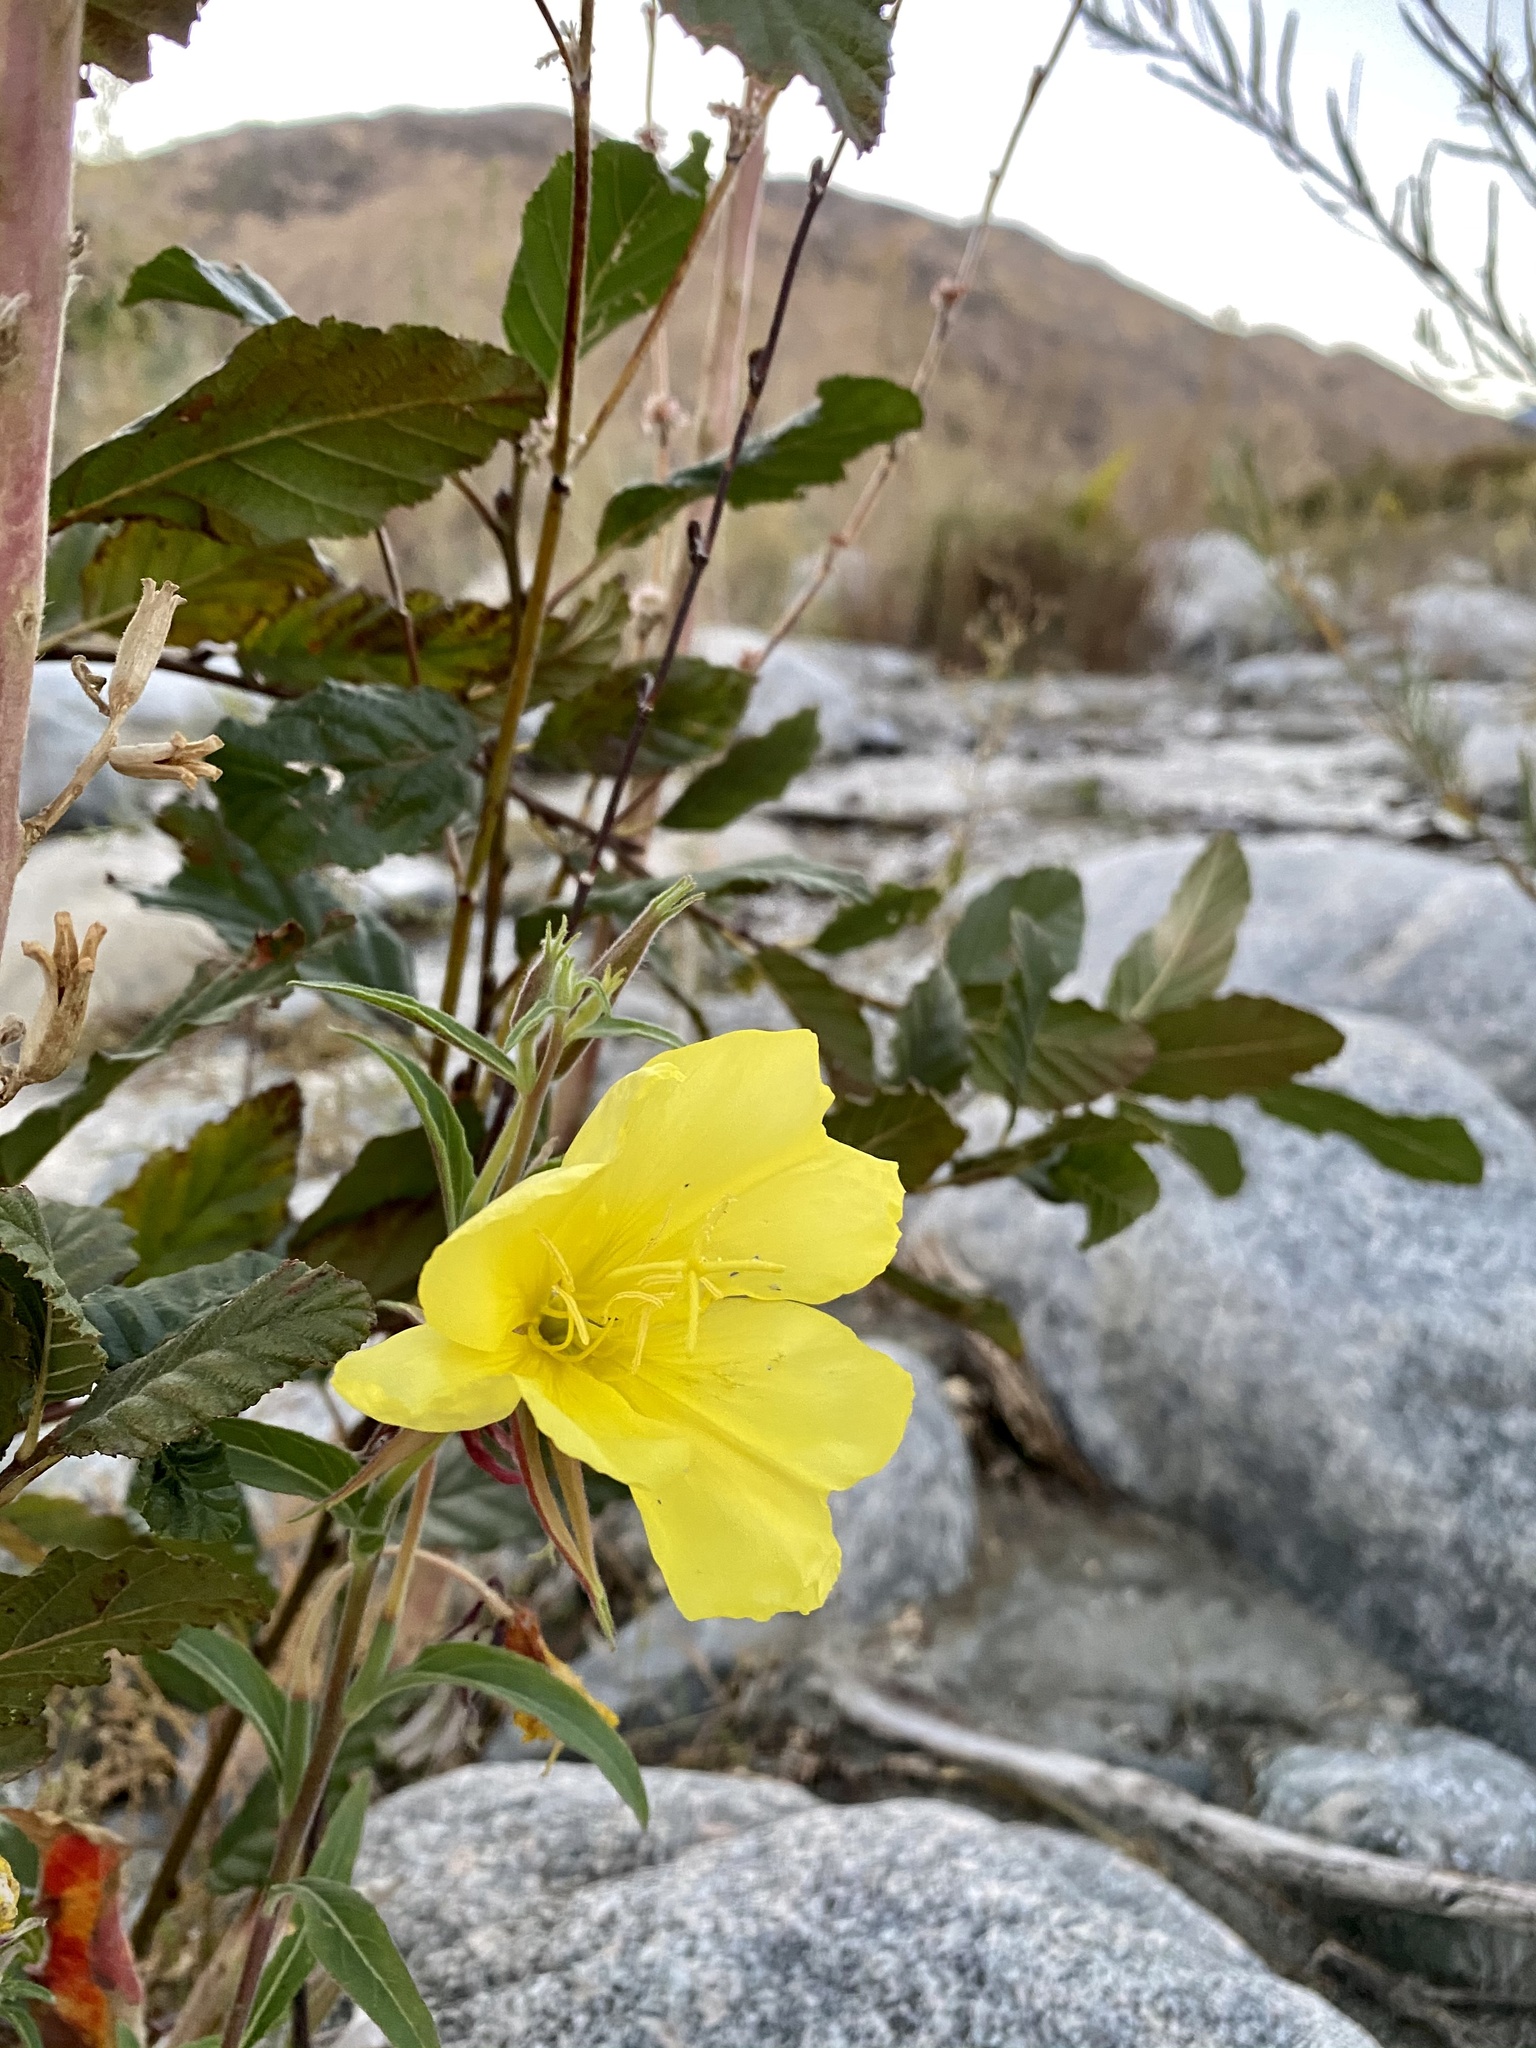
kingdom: Plantae
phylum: Tracheophyta
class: Magnoliopsida
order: Myrtales
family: Onagraceae
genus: Oenothera
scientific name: Oenothera elata
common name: Hooker's evening-primrose
